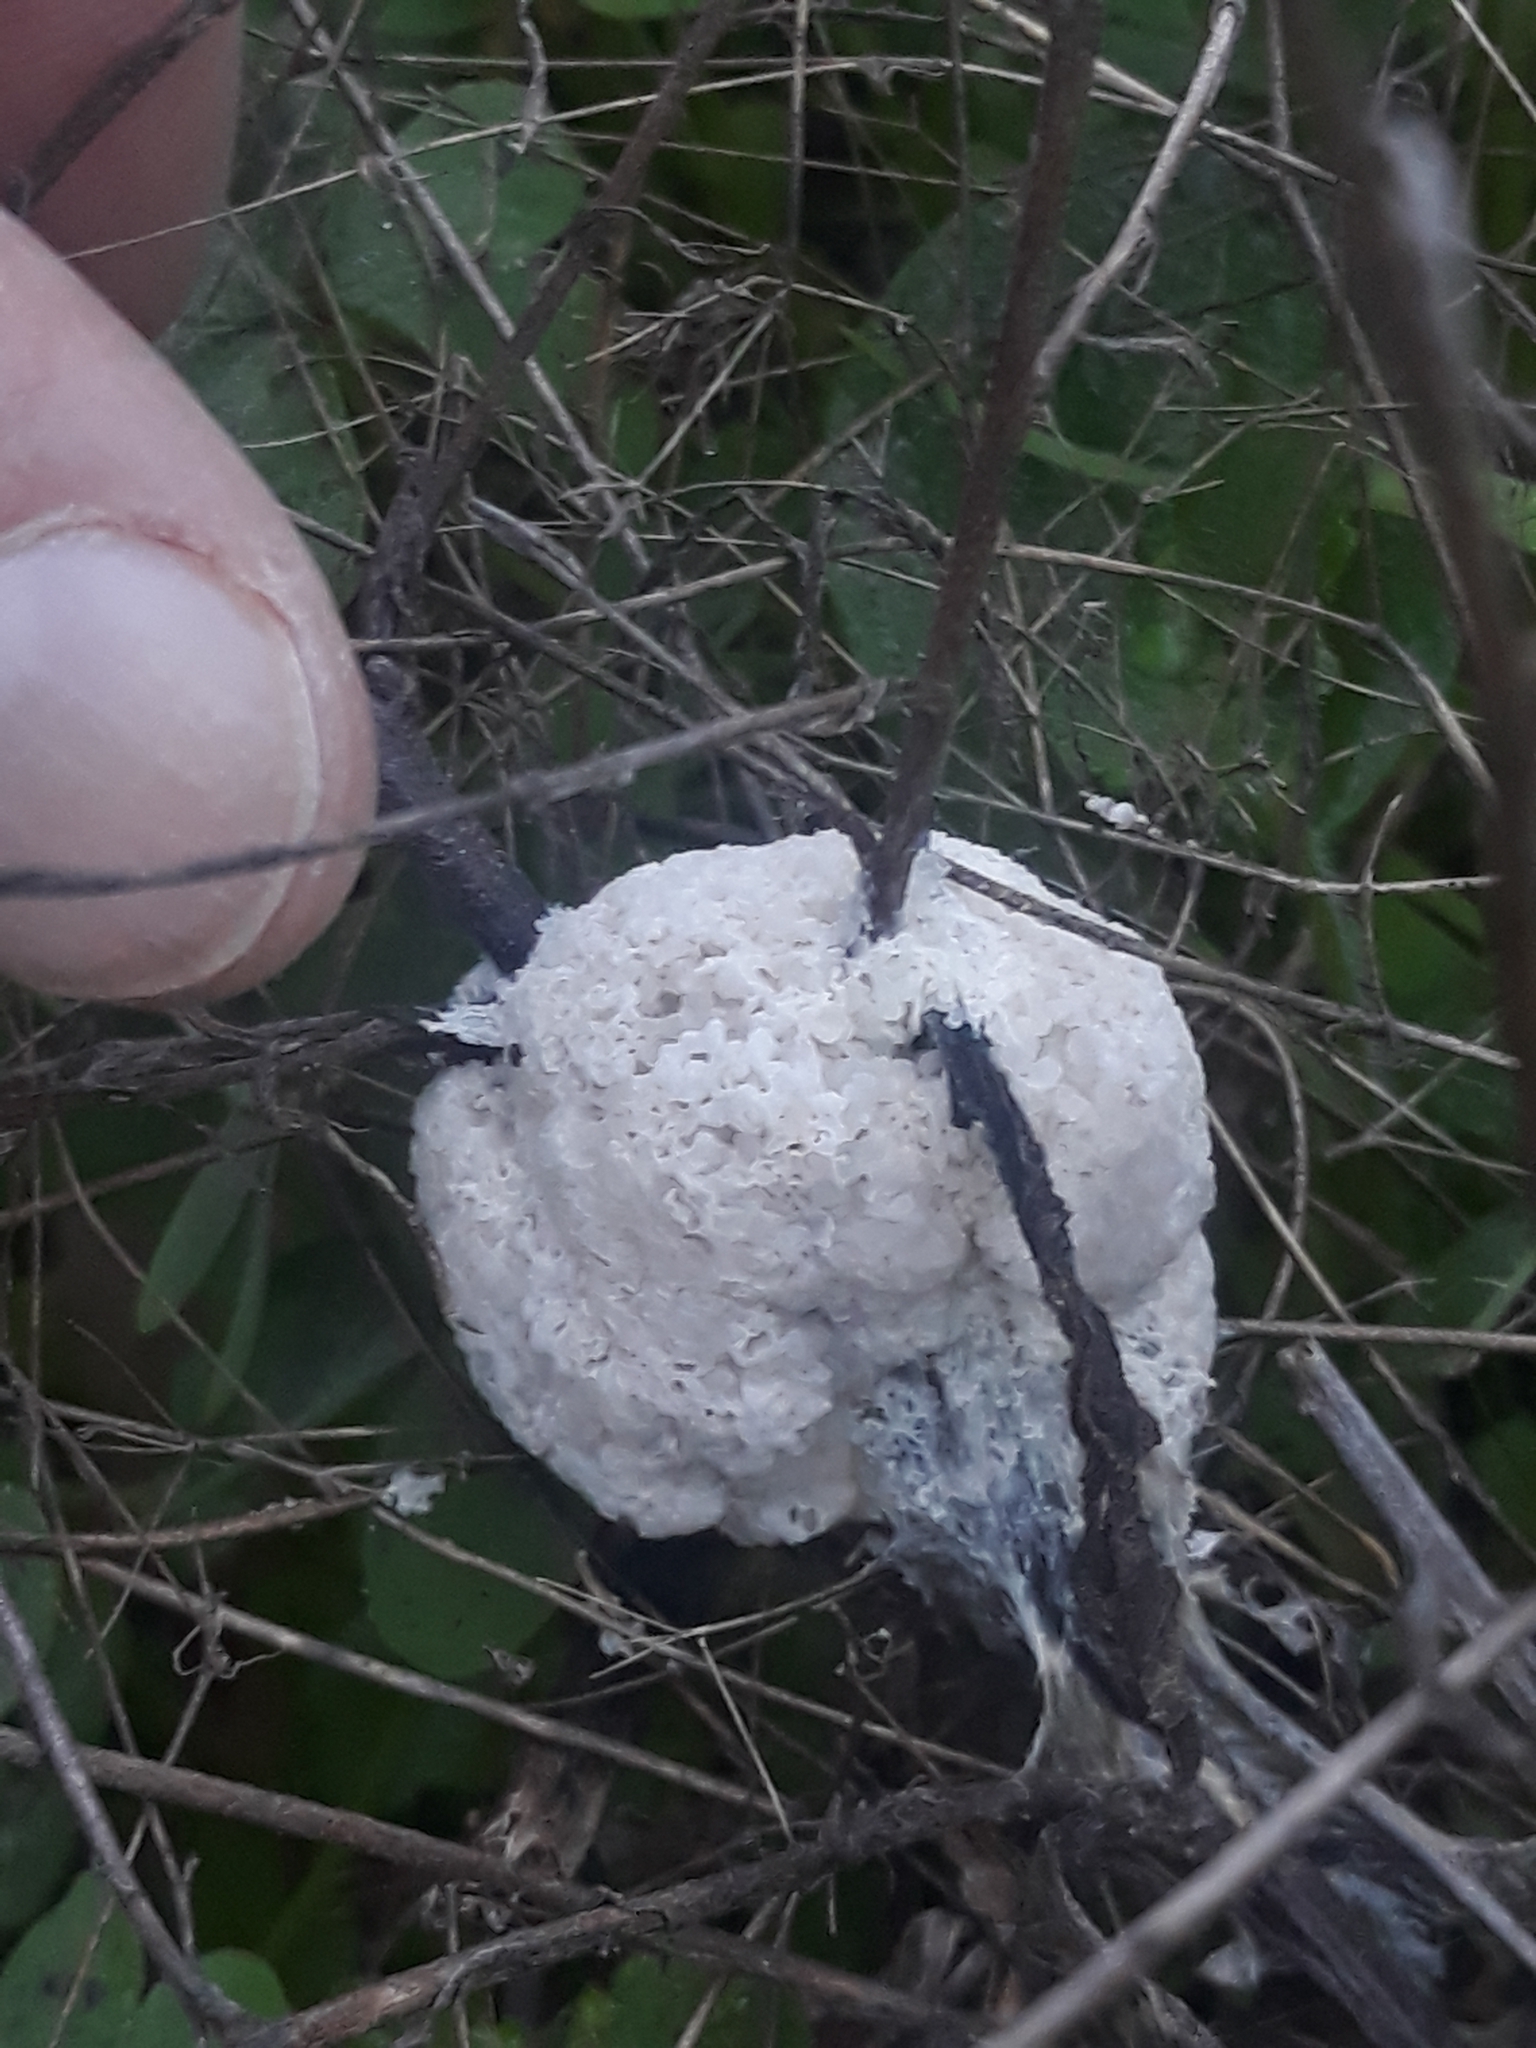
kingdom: Protozoa
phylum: Mycetozoa
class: Myxomycetes
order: Physarales
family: Physaraceae
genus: Didymium
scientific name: Didymium
